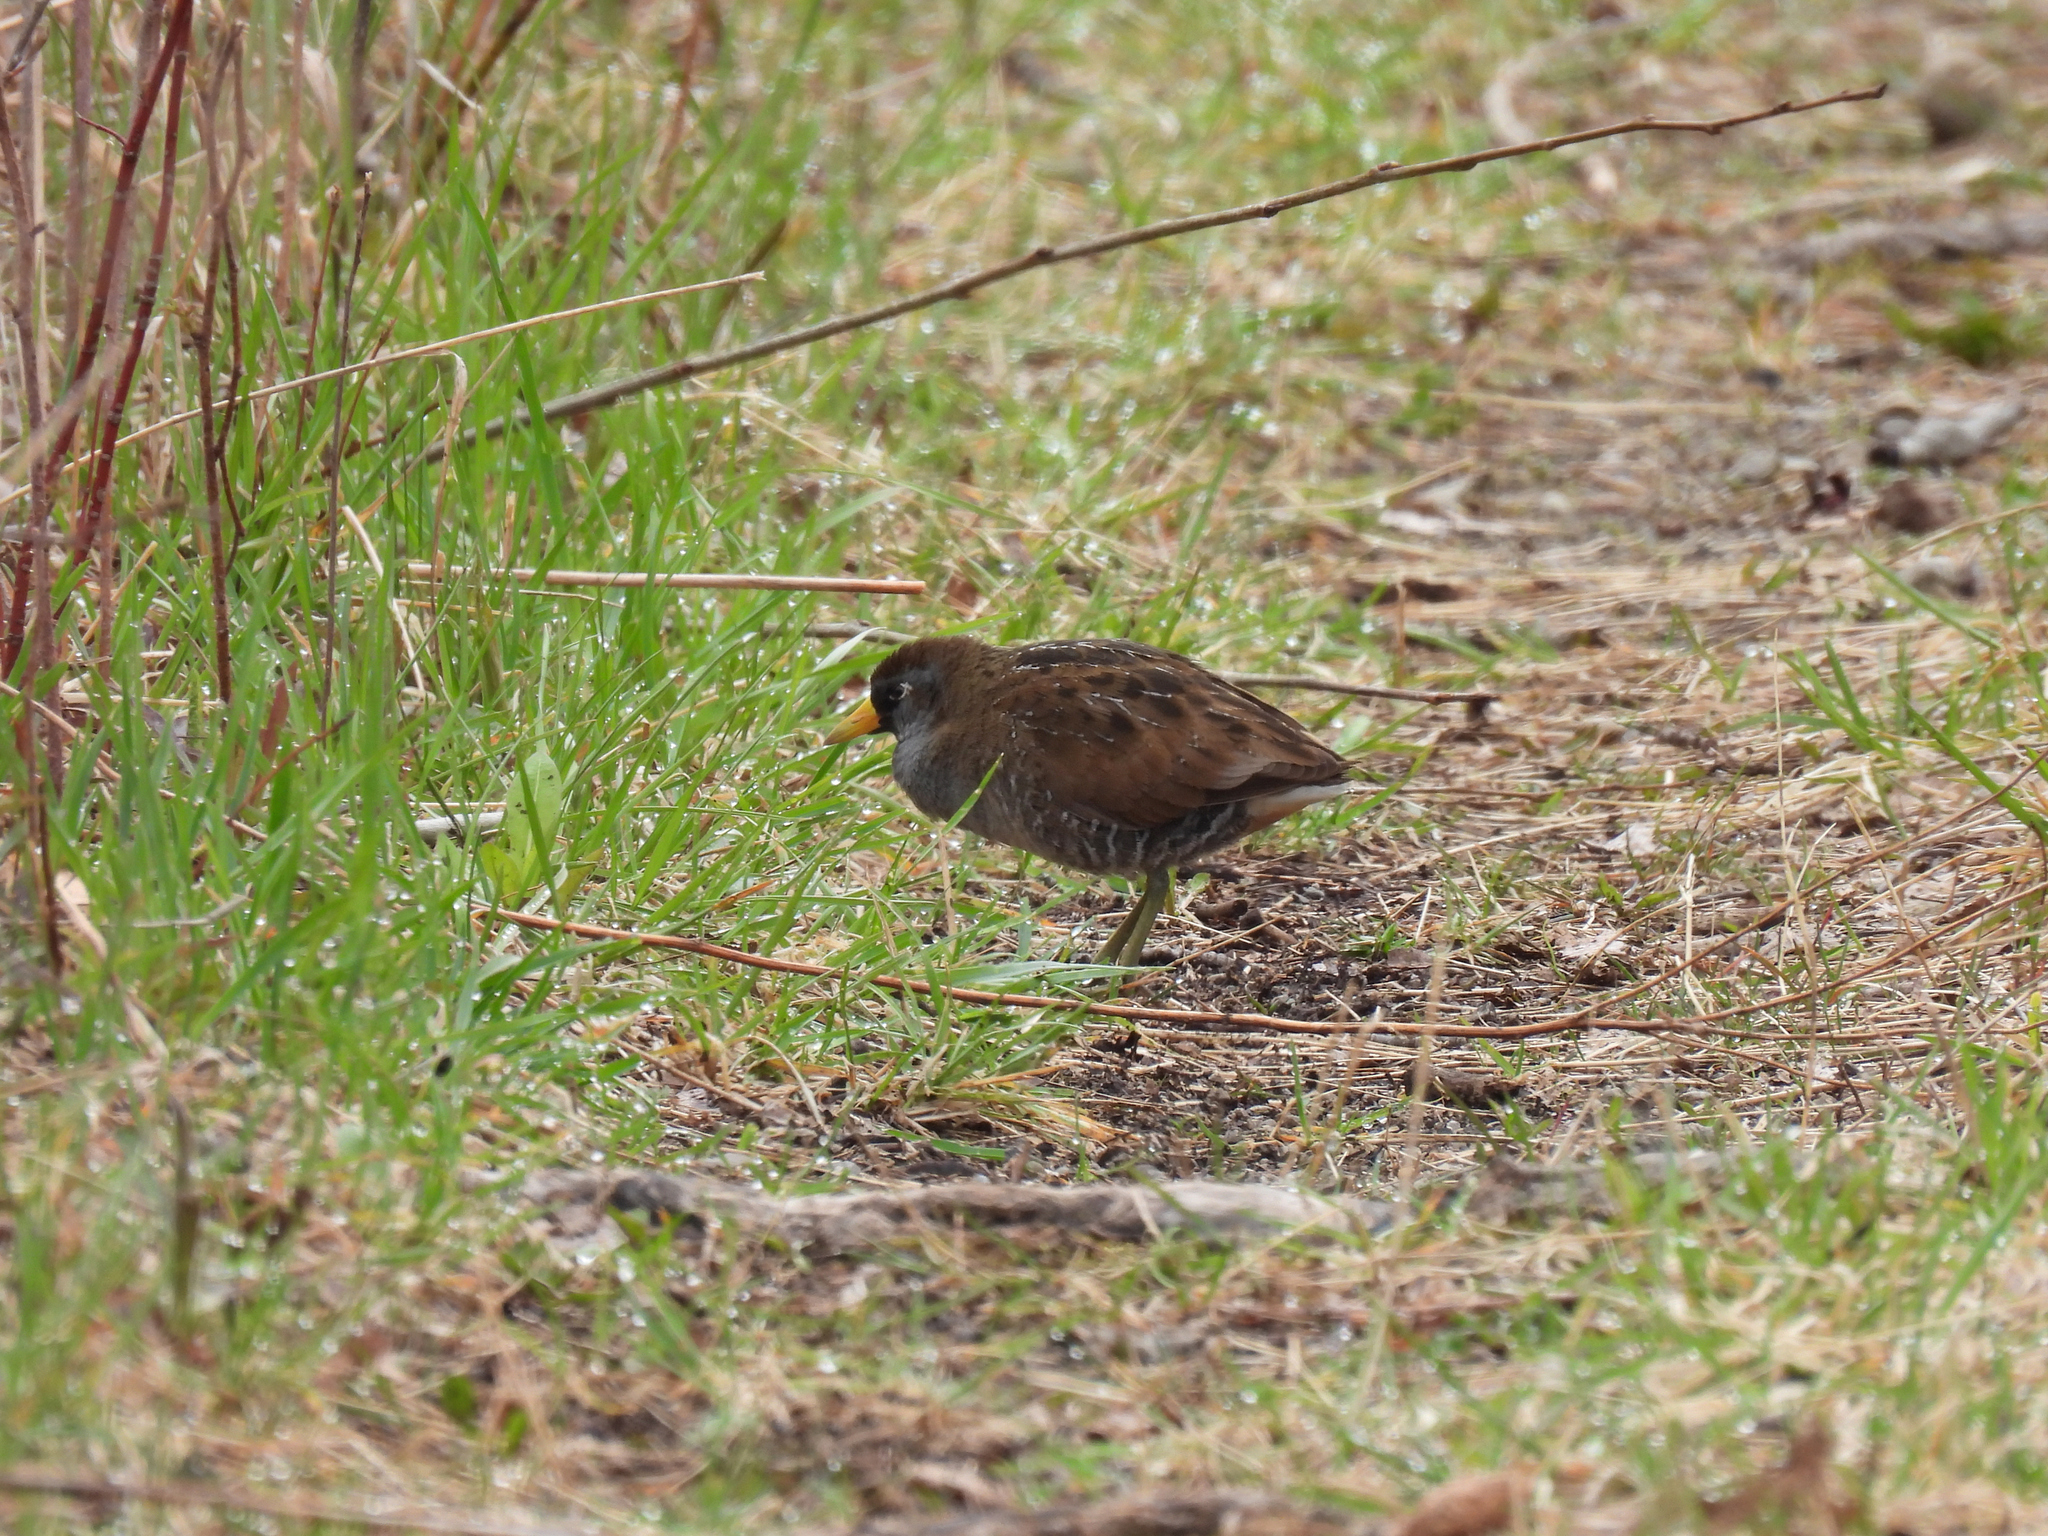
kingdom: Animalia
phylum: Chordata
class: Aves
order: Gruiformes
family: Rallidae
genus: Porzana
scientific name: Porzana carolina
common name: Sora
